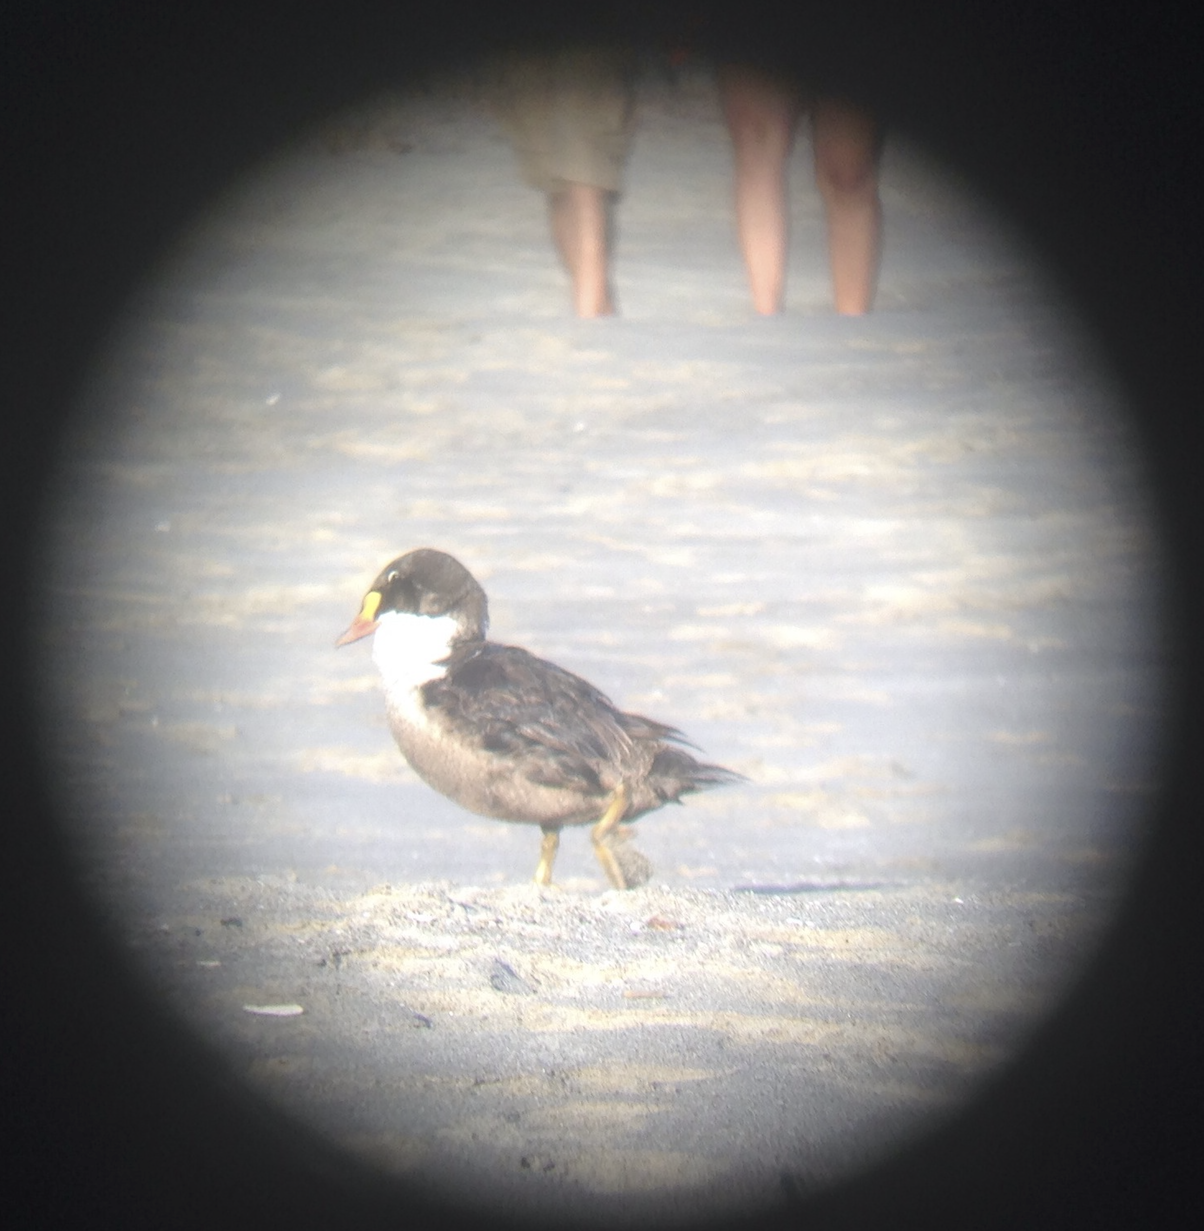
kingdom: Animalia
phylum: Chordata
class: Aves
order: Anseriformes
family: Anatidae
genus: Somateria
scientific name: Somateria spectabilis
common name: King eider
